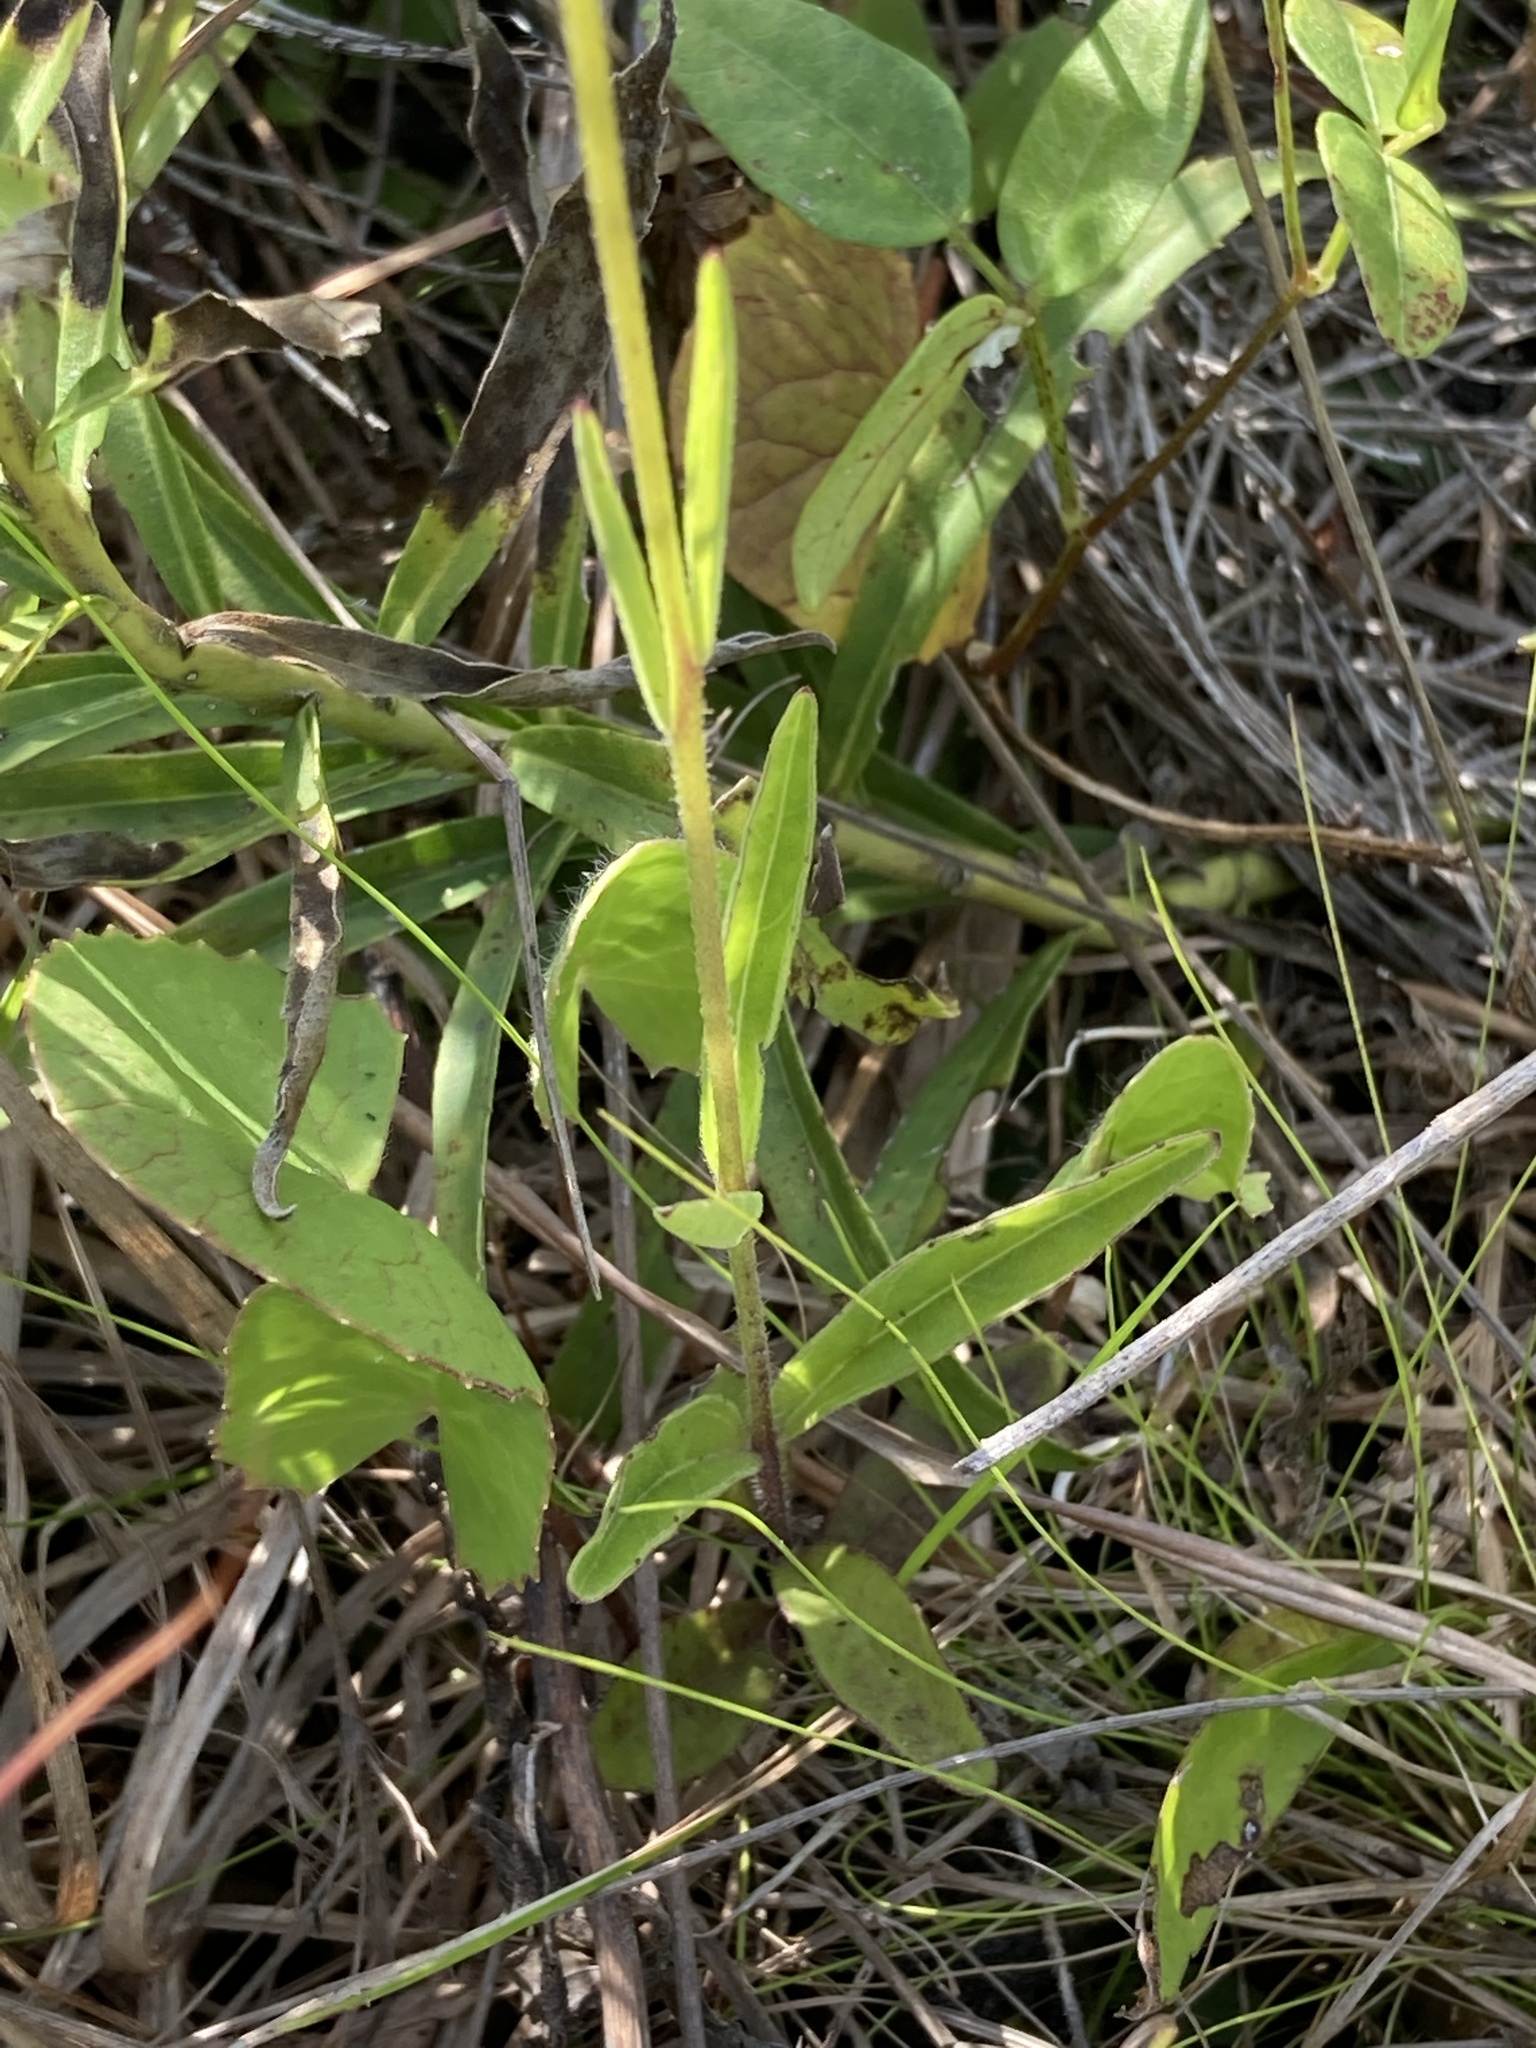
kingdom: Plantae
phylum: Tracheophyta
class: Magnoliopsida
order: Lamiales
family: Orobanchaceae
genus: Buchnera
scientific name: Buchnera floridana
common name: Florida bluehearts
